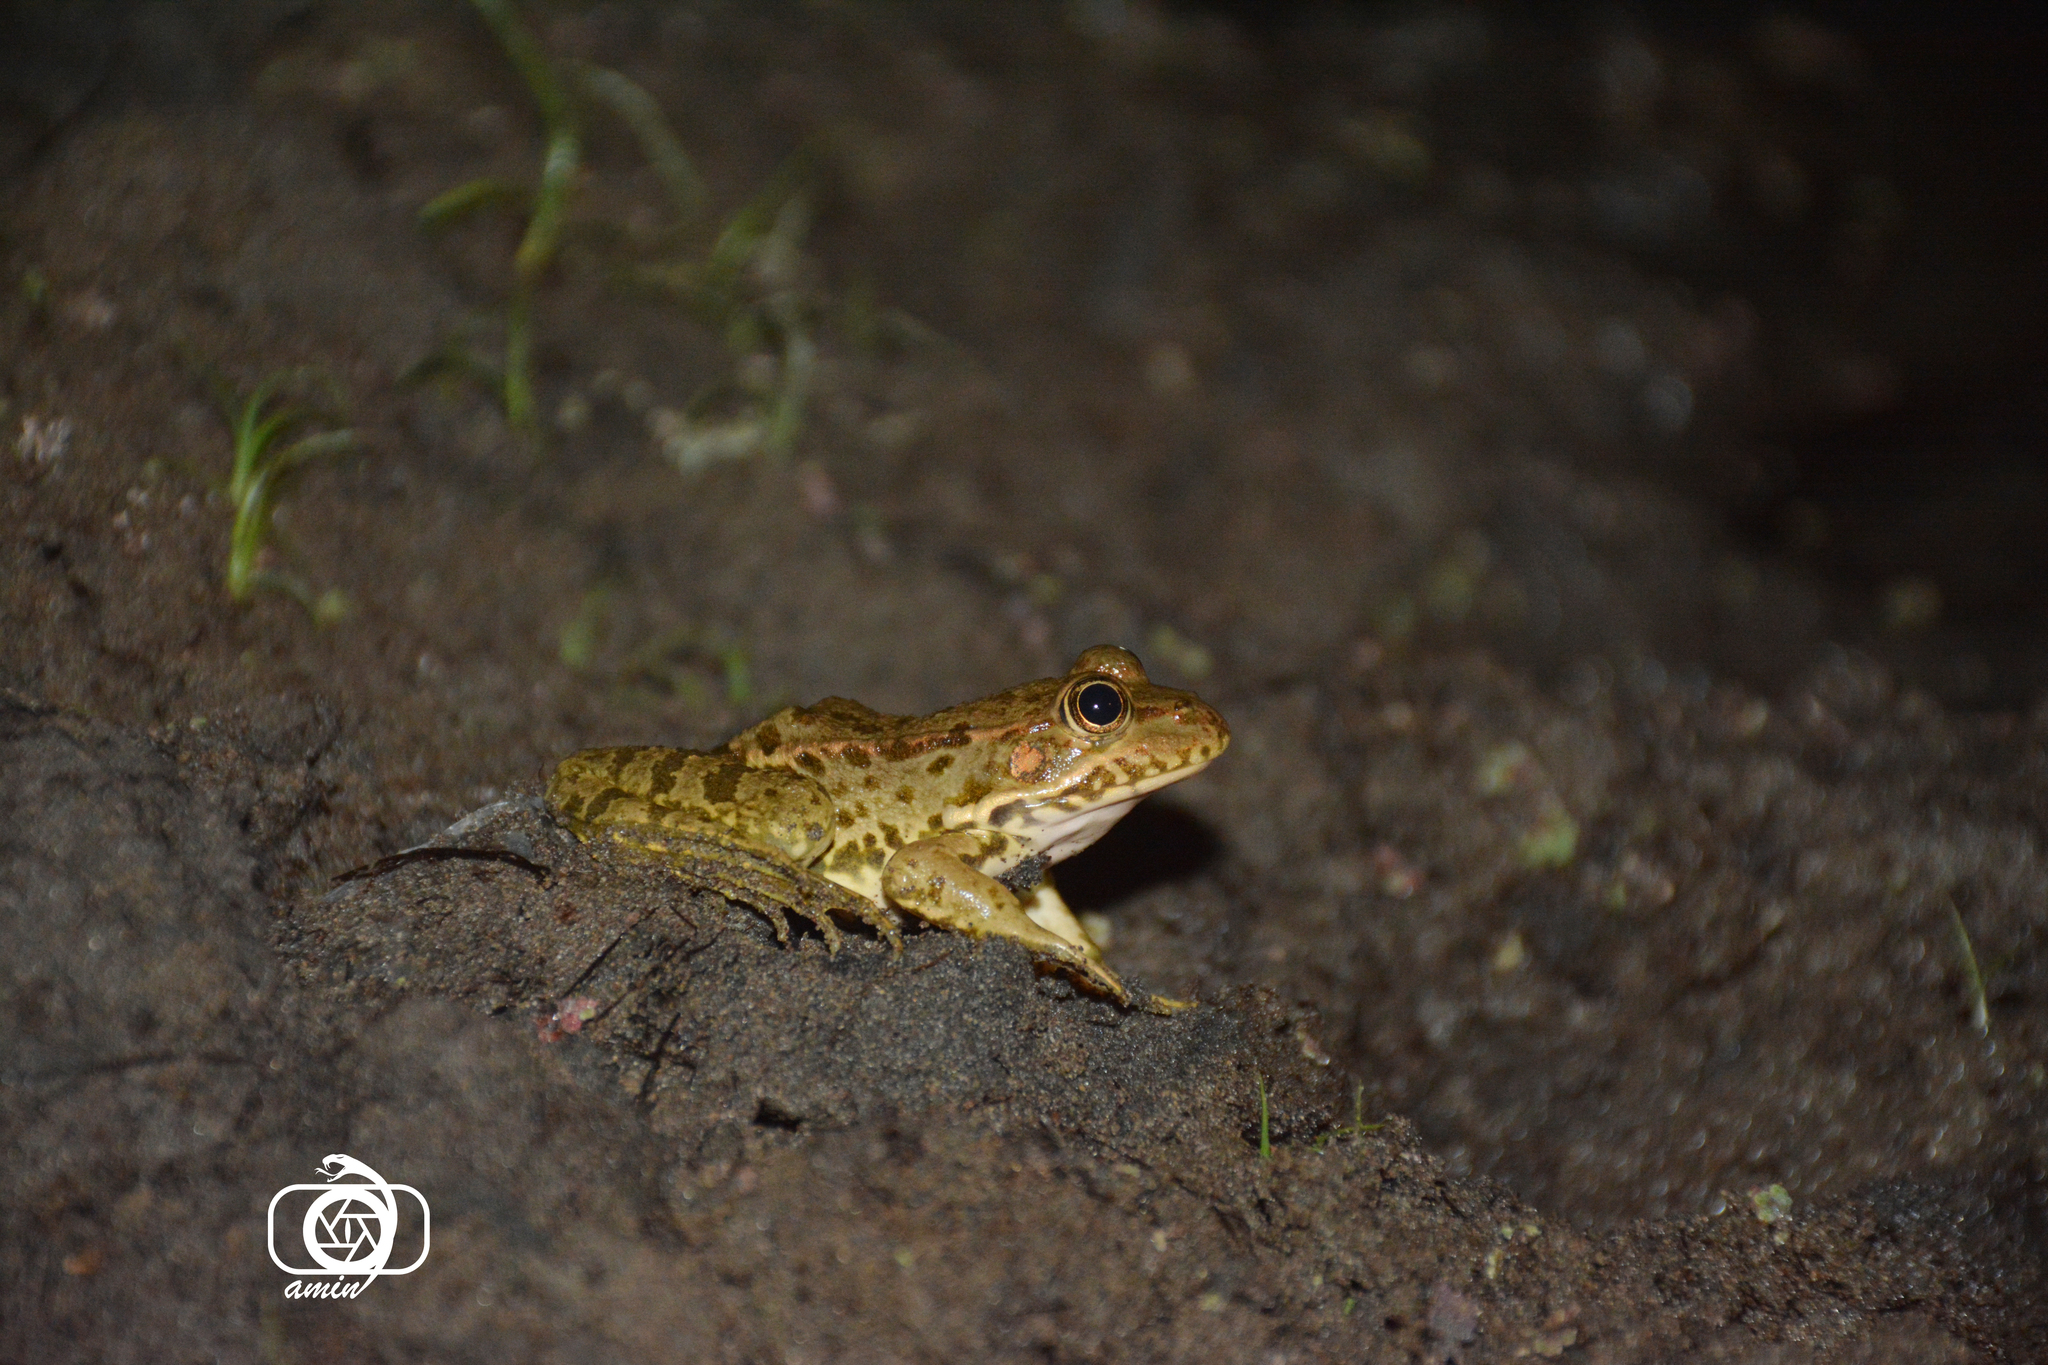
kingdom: Animalia
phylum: Chordata
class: Amphibia
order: Anura
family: Ranidae
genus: Pelophylax
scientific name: Pelophylax ridibundus
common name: Marsh frog
